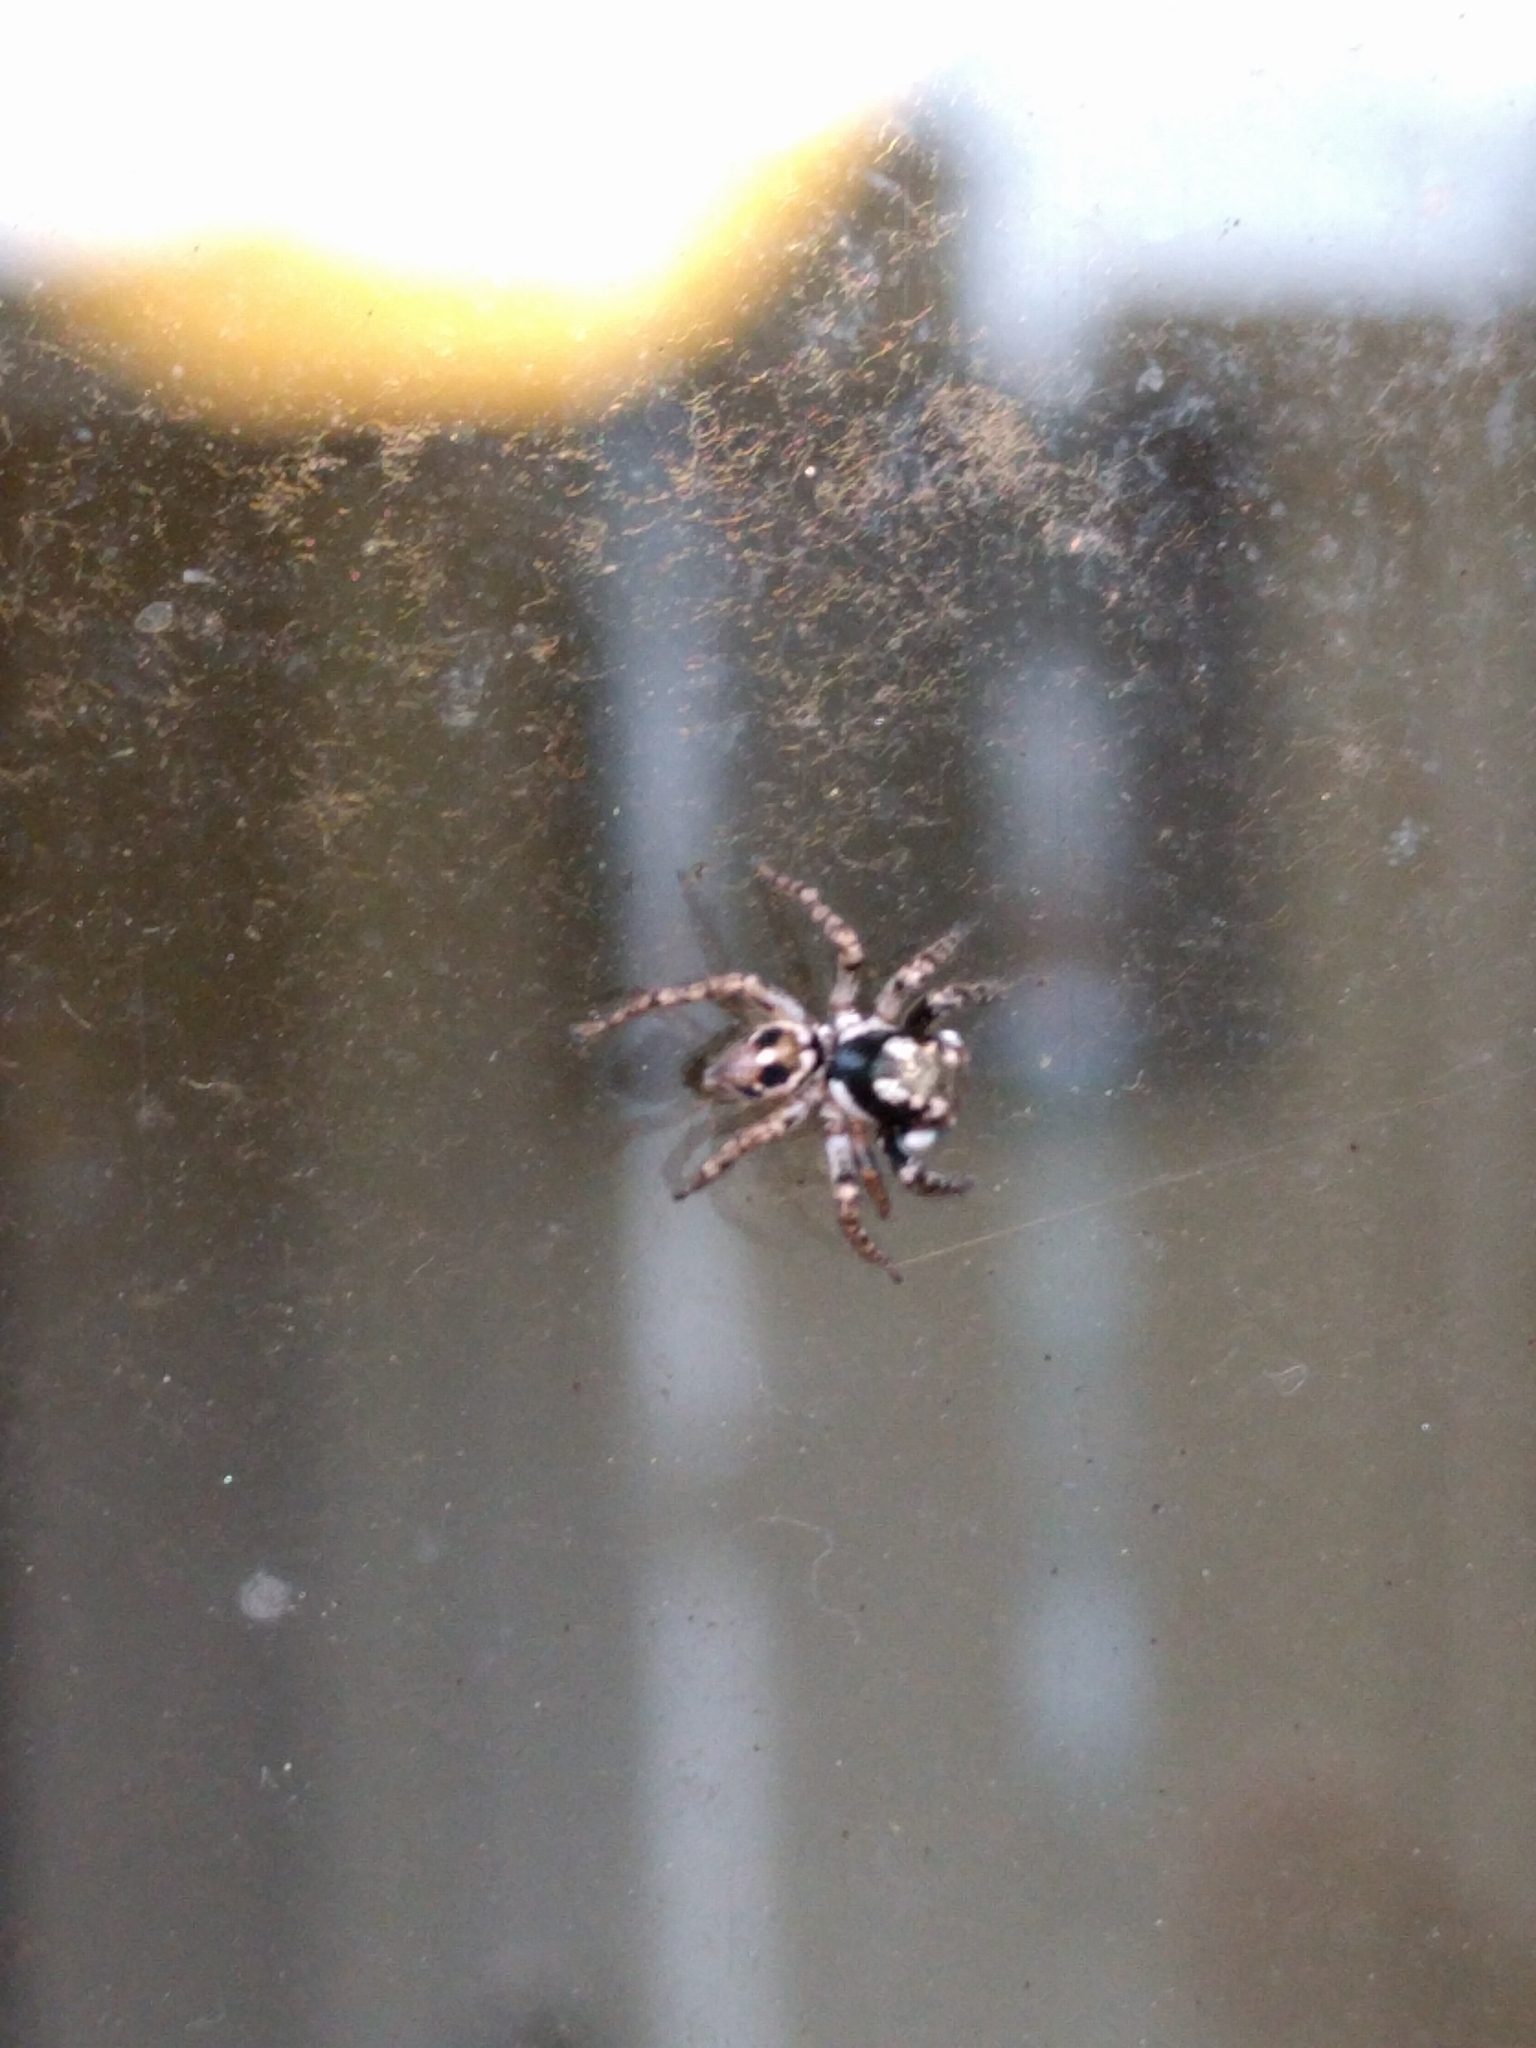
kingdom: Animalia
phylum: Arthropoda
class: Arachnida
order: Araneae
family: Salticidae
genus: Anasaitis
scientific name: Anasaitis canosa
